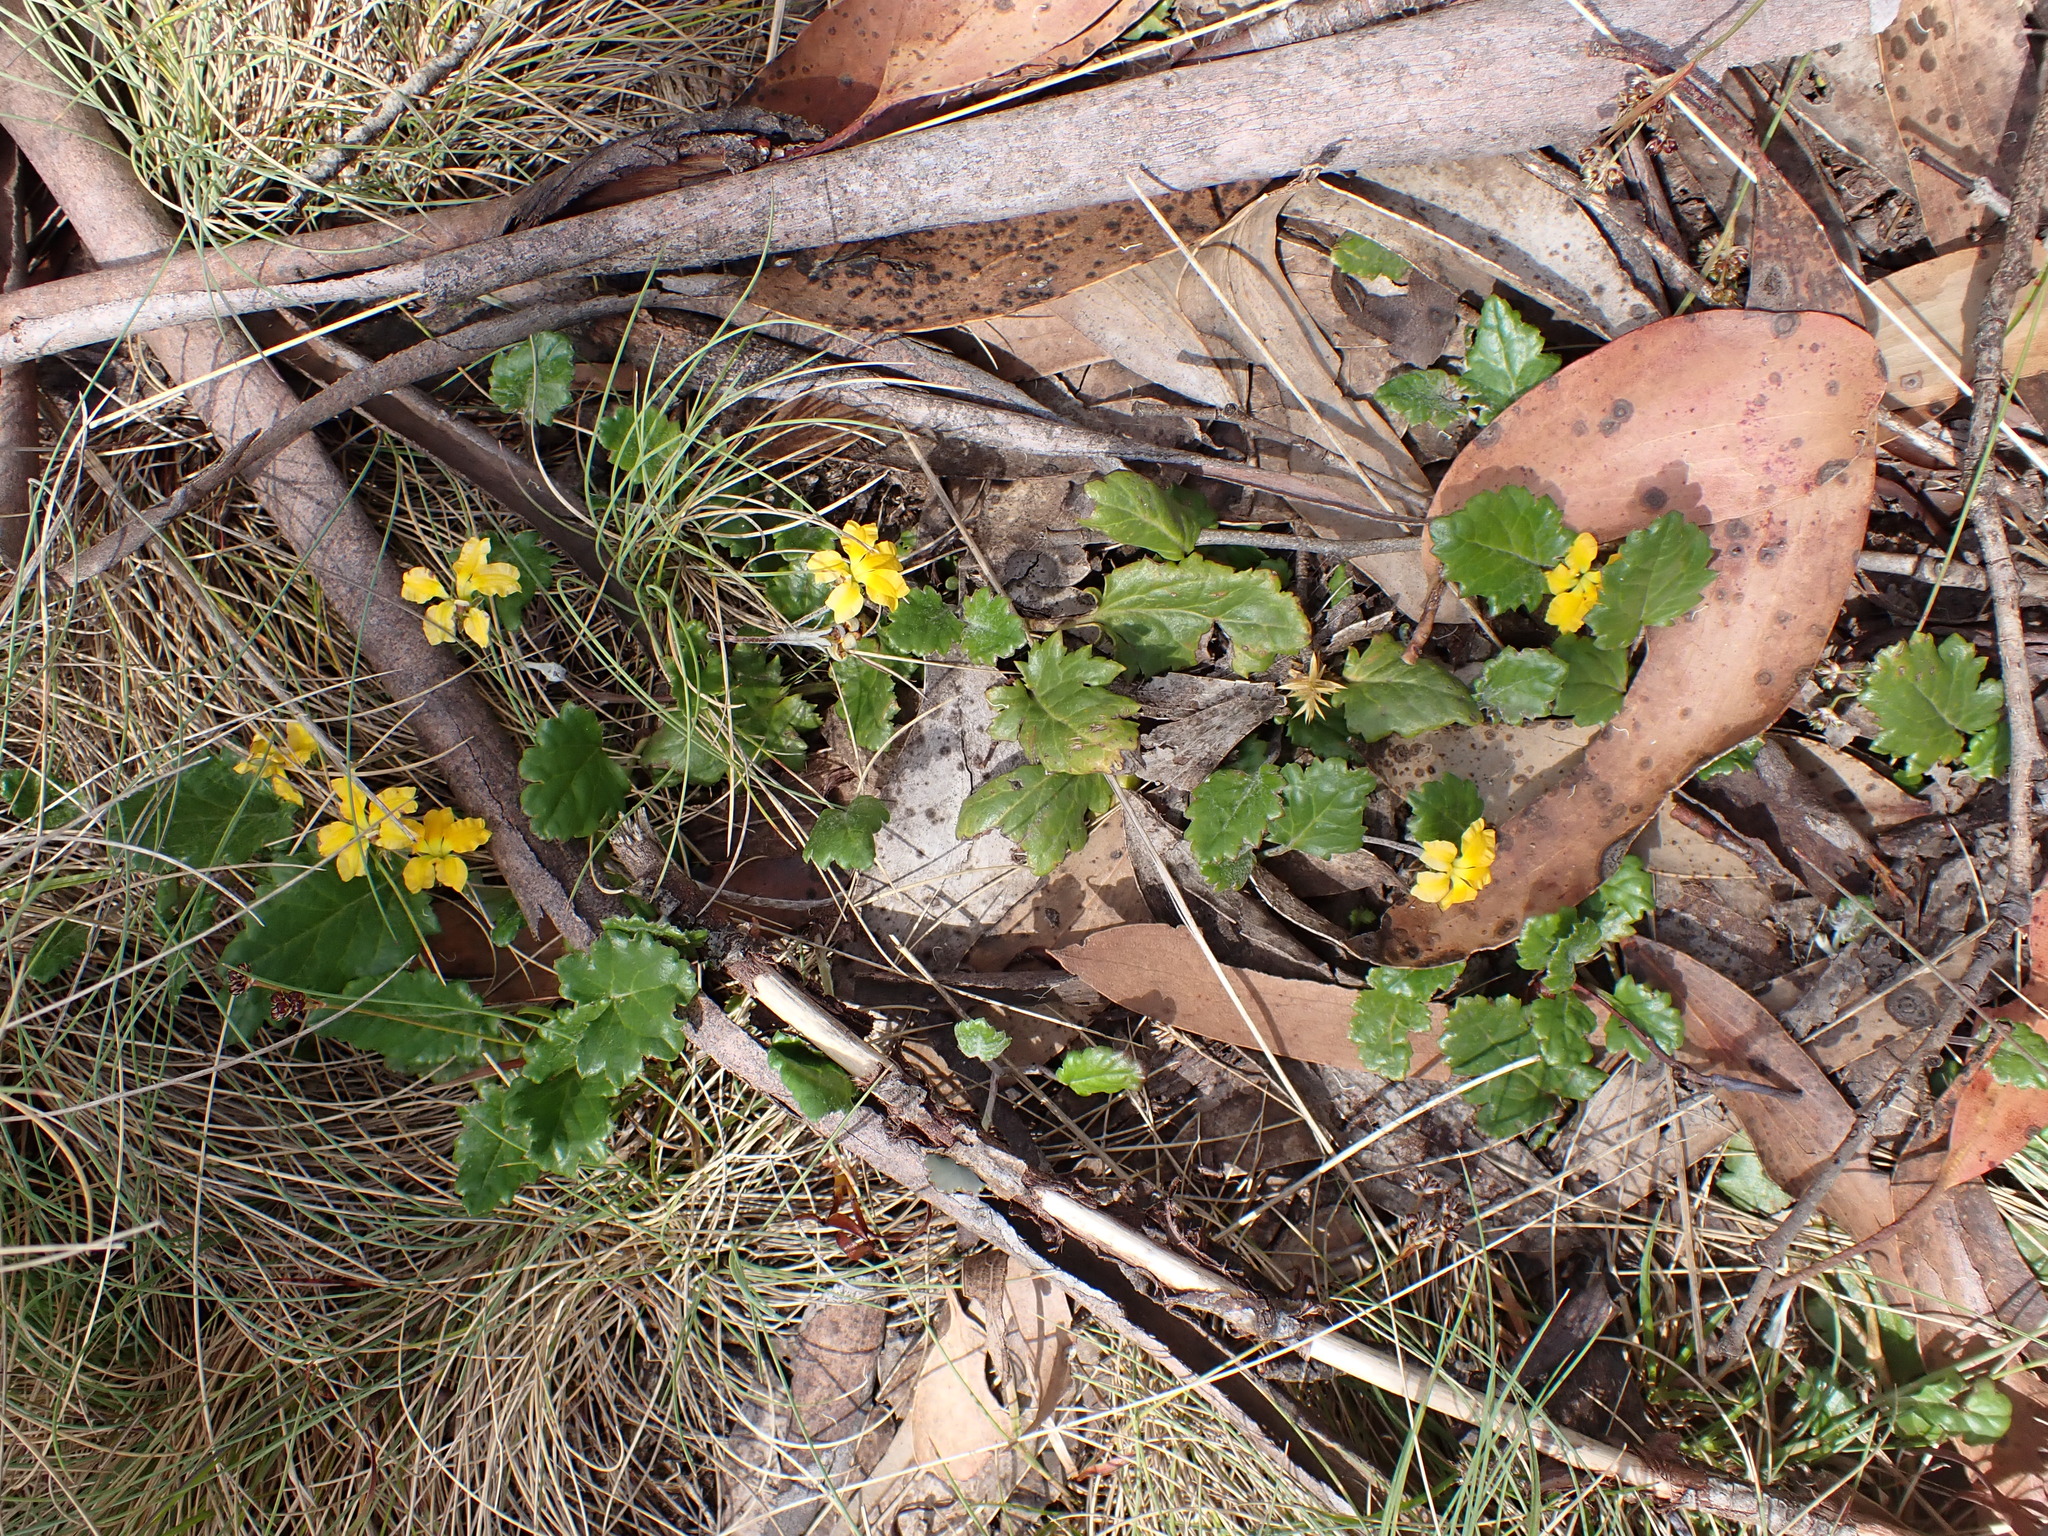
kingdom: Plantae
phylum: Tracheophyta
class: Magnoliopsida
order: Asterales
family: Goodeniaceae
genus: Goodenia
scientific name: Goodenia hederacea
